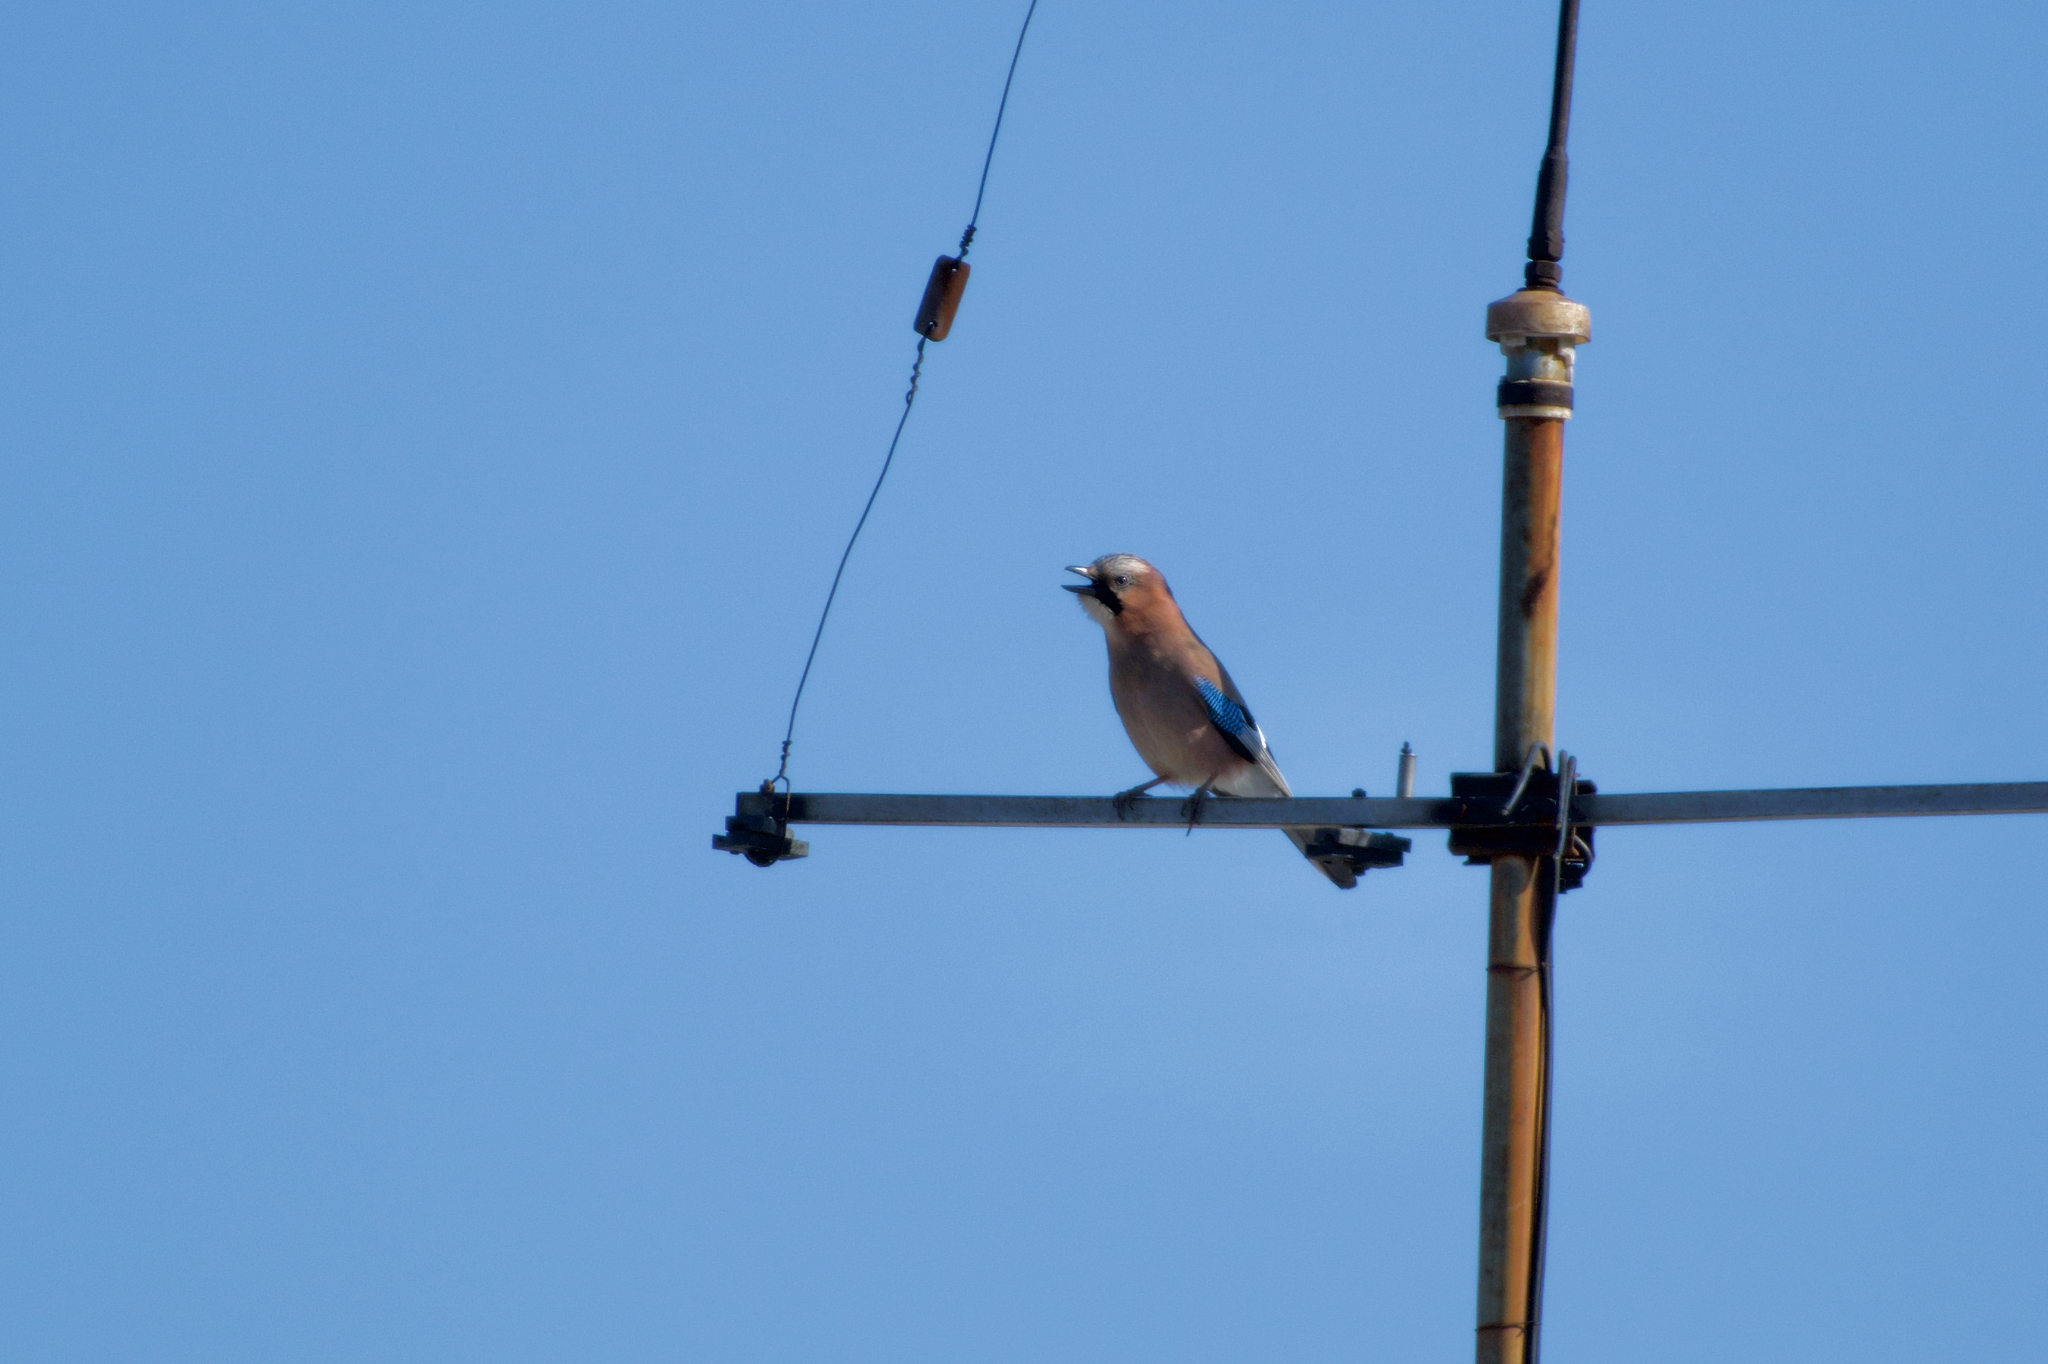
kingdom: Animalia
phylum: Chordata
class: Aves
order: Passeriformes
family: Corvidae
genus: Garrulus
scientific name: Garrulus glandarius
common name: Eurasian jay
